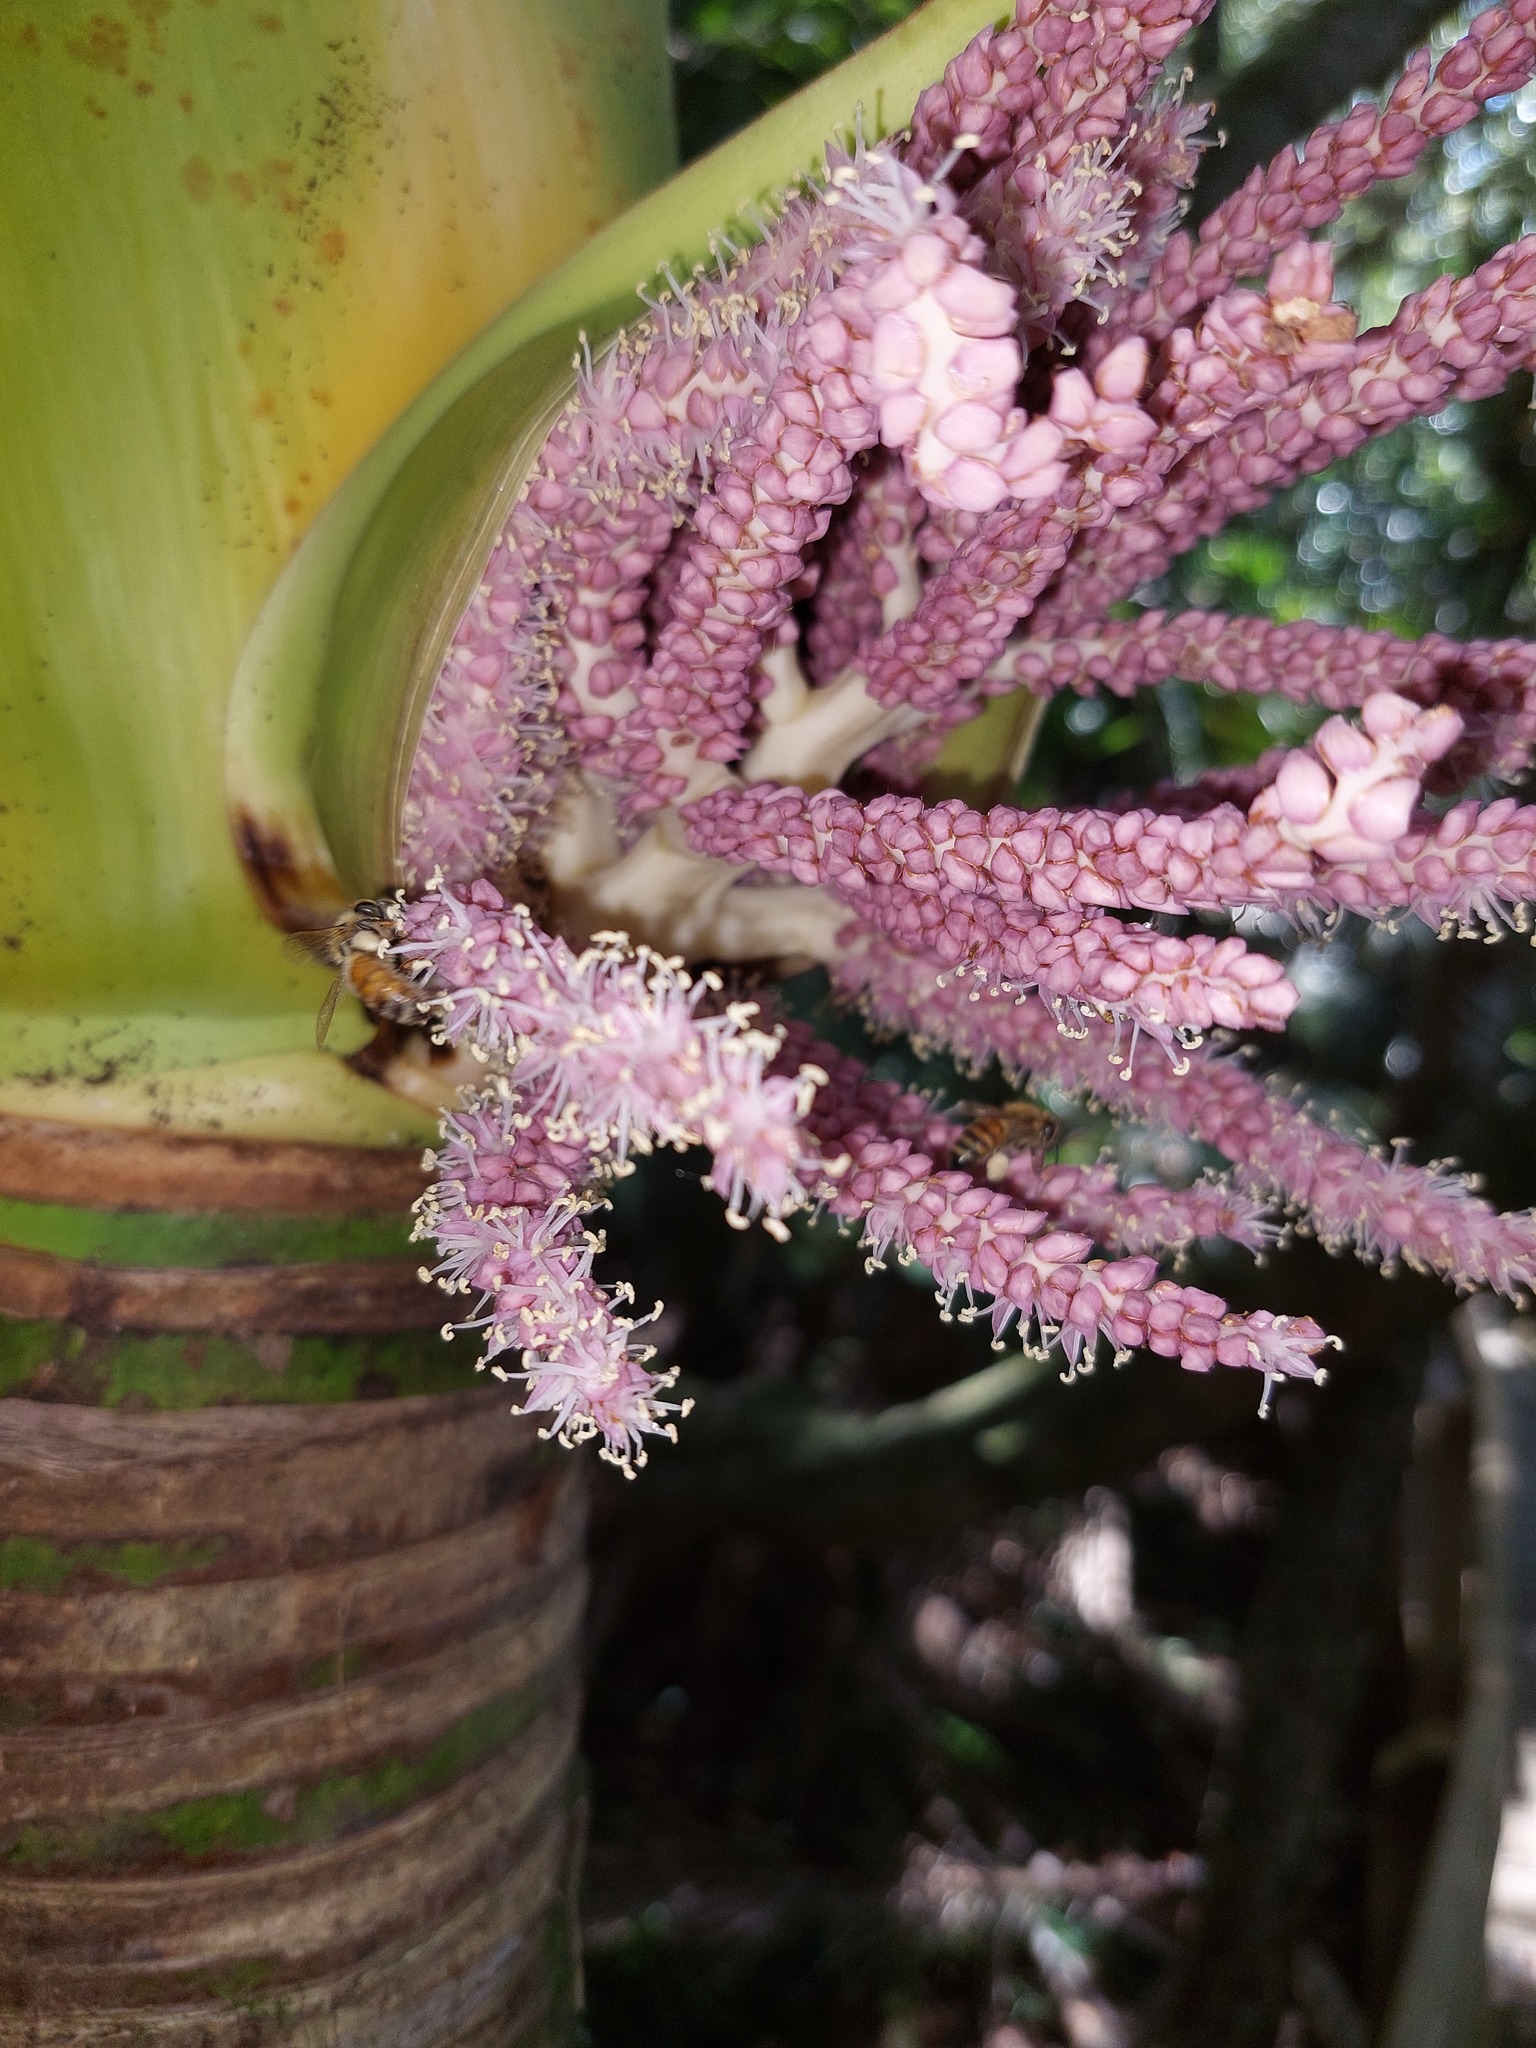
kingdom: Plantae
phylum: Tracheophyta
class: Liliopsida
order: Arecales
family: Arecaceae
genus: Rhopalostylis
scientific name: Rhopalostylis sapida
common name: Feather-duster palm
